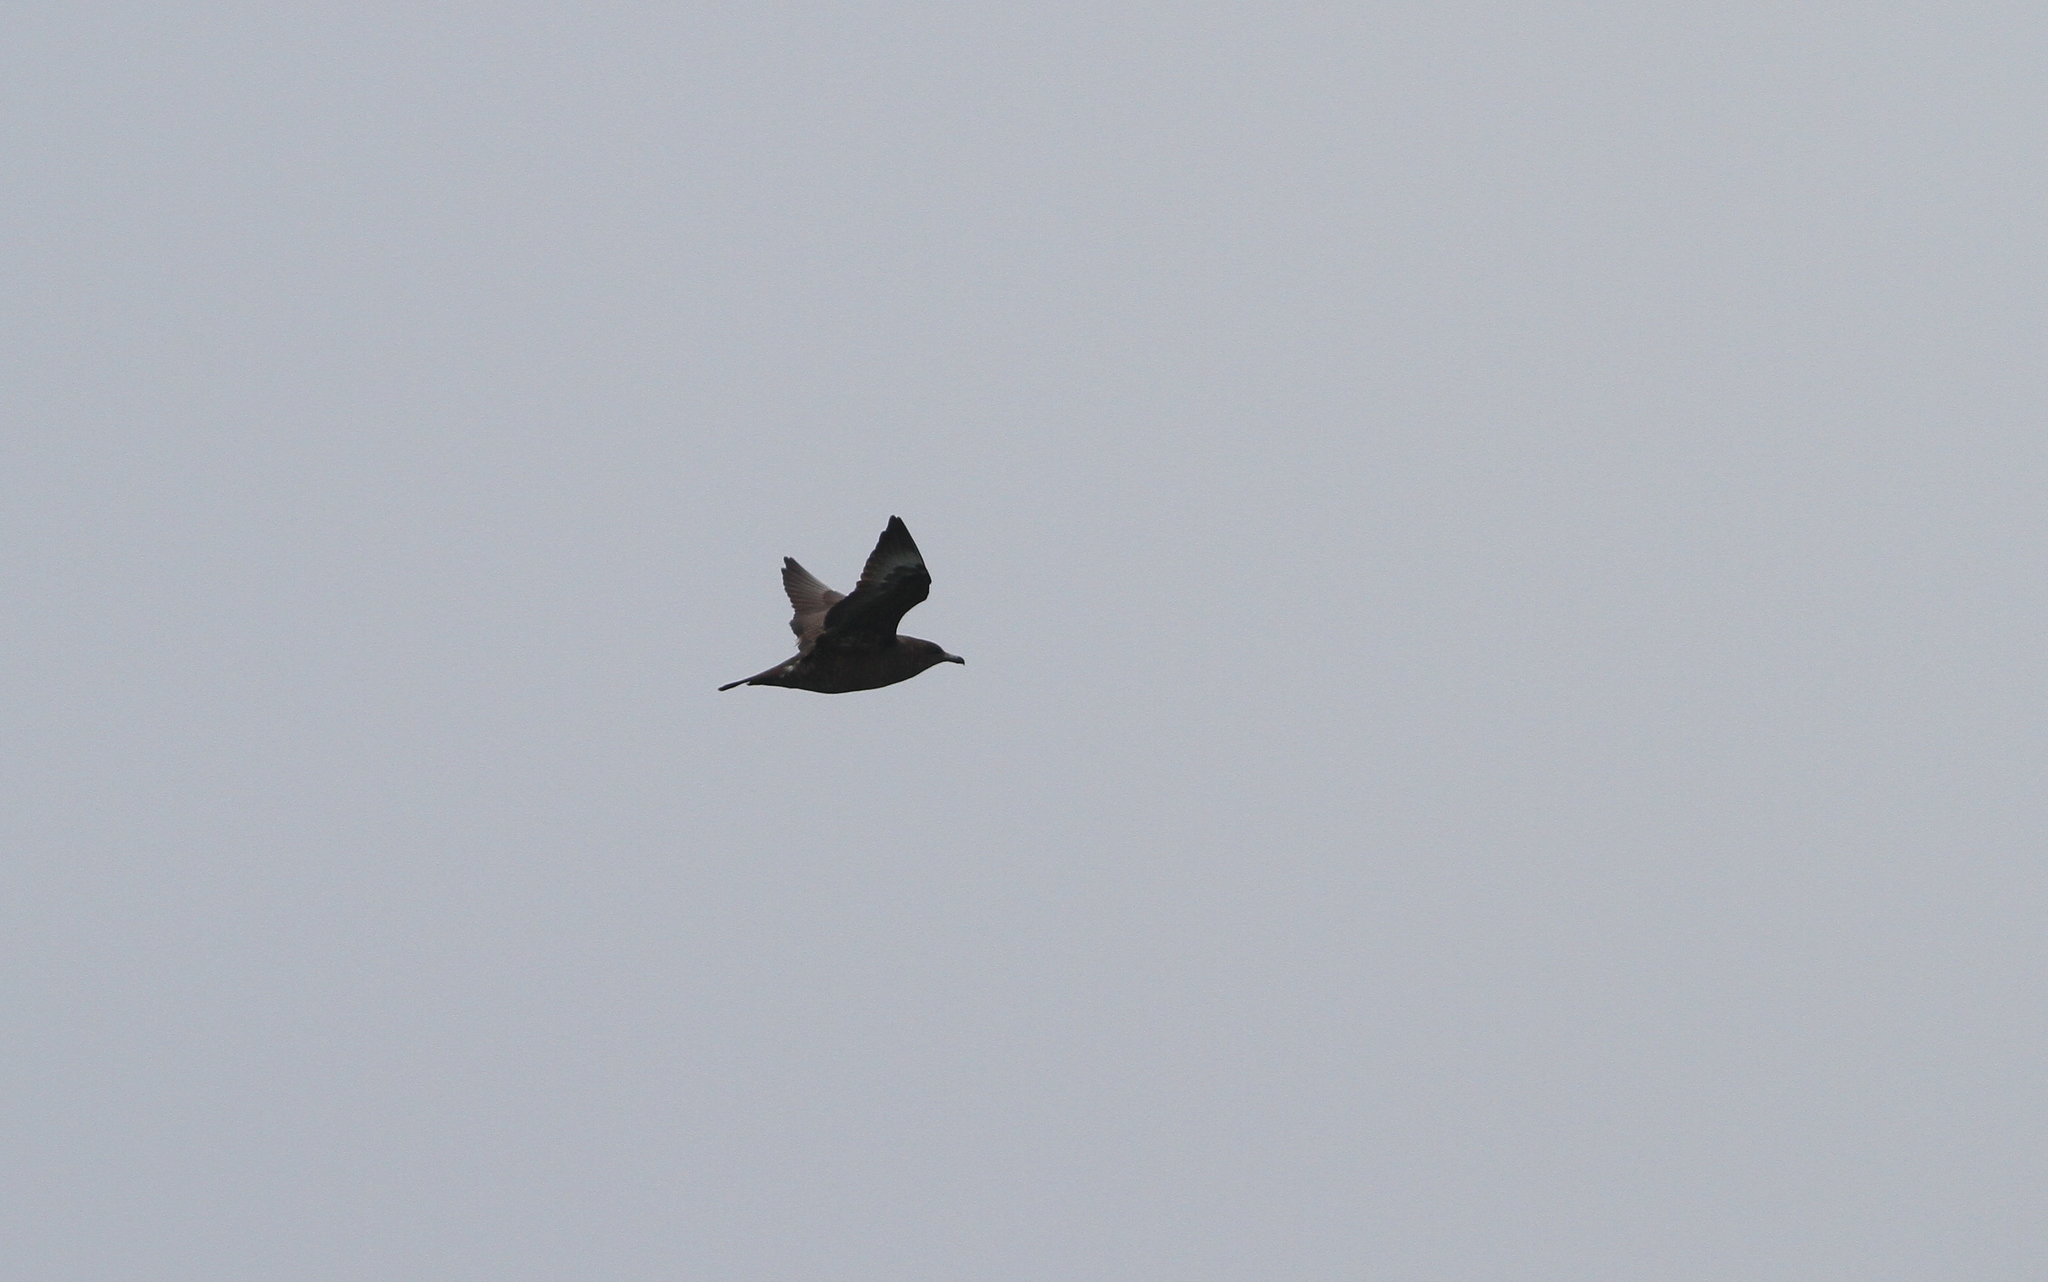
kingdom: Animalia
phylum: Chordata
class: Aves
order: Charadriiformes
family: Stercorariidae
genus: Stercorarius
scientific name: Stercorarius pomarinus
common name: Pomarine jaeger
